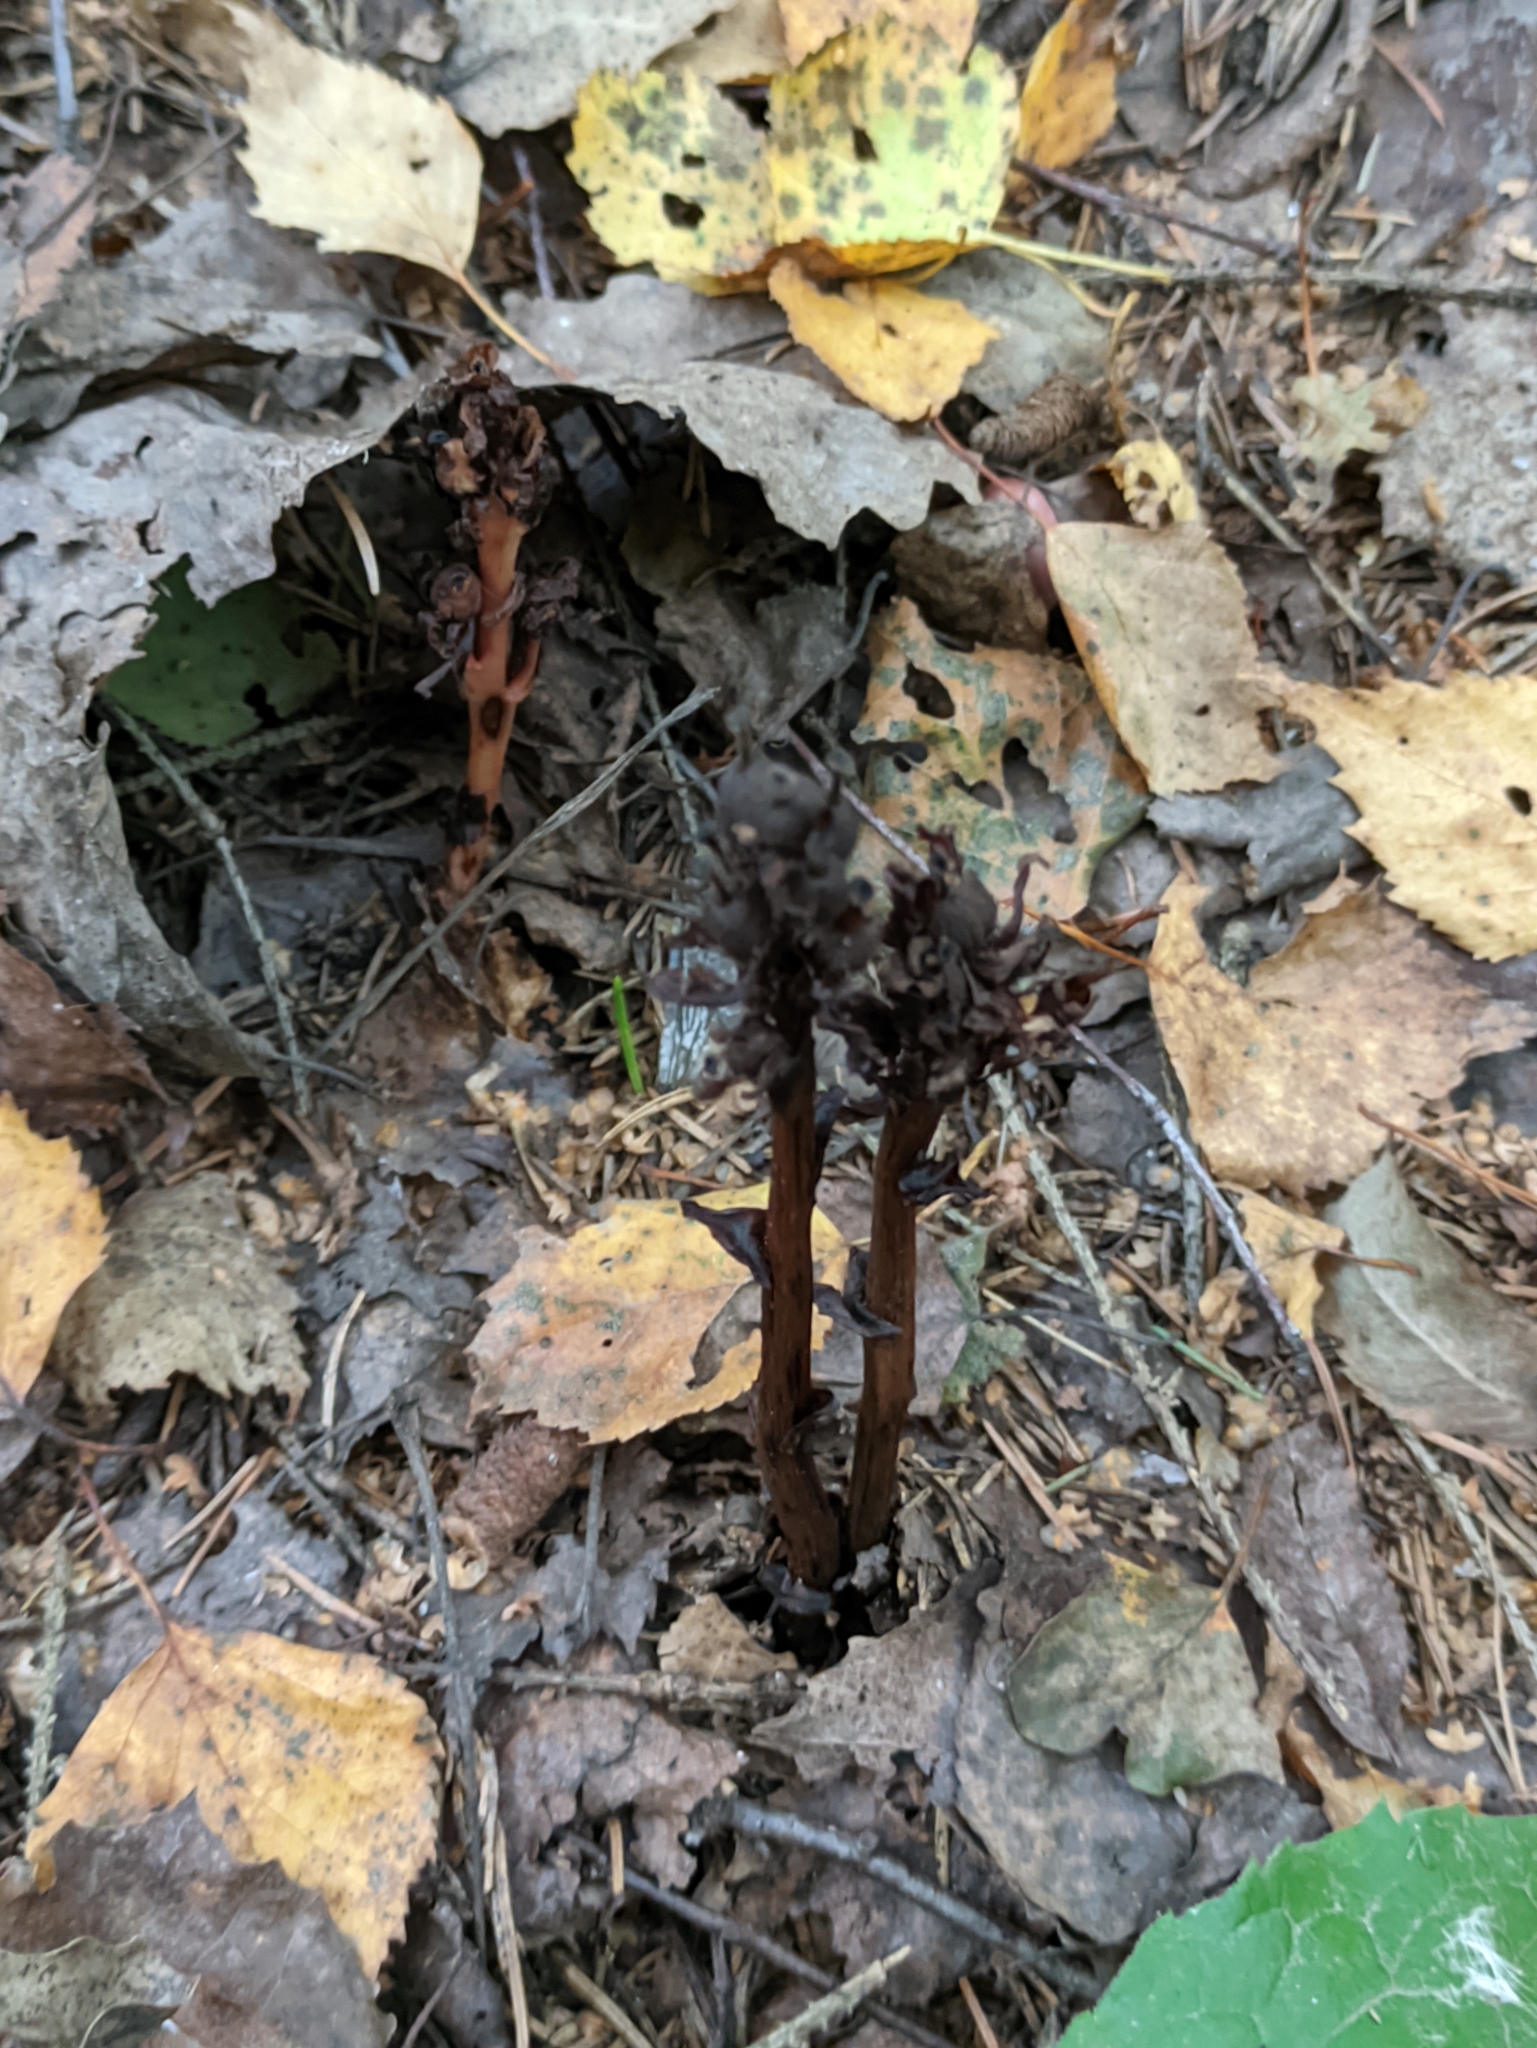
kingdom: Plantae
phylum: Tracheophyta
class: Magnoliopsida
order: Ericales
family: Ericaceae
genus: Hypopitys
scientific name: Hypopitys monotropa
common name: Yellow bird's-nest
